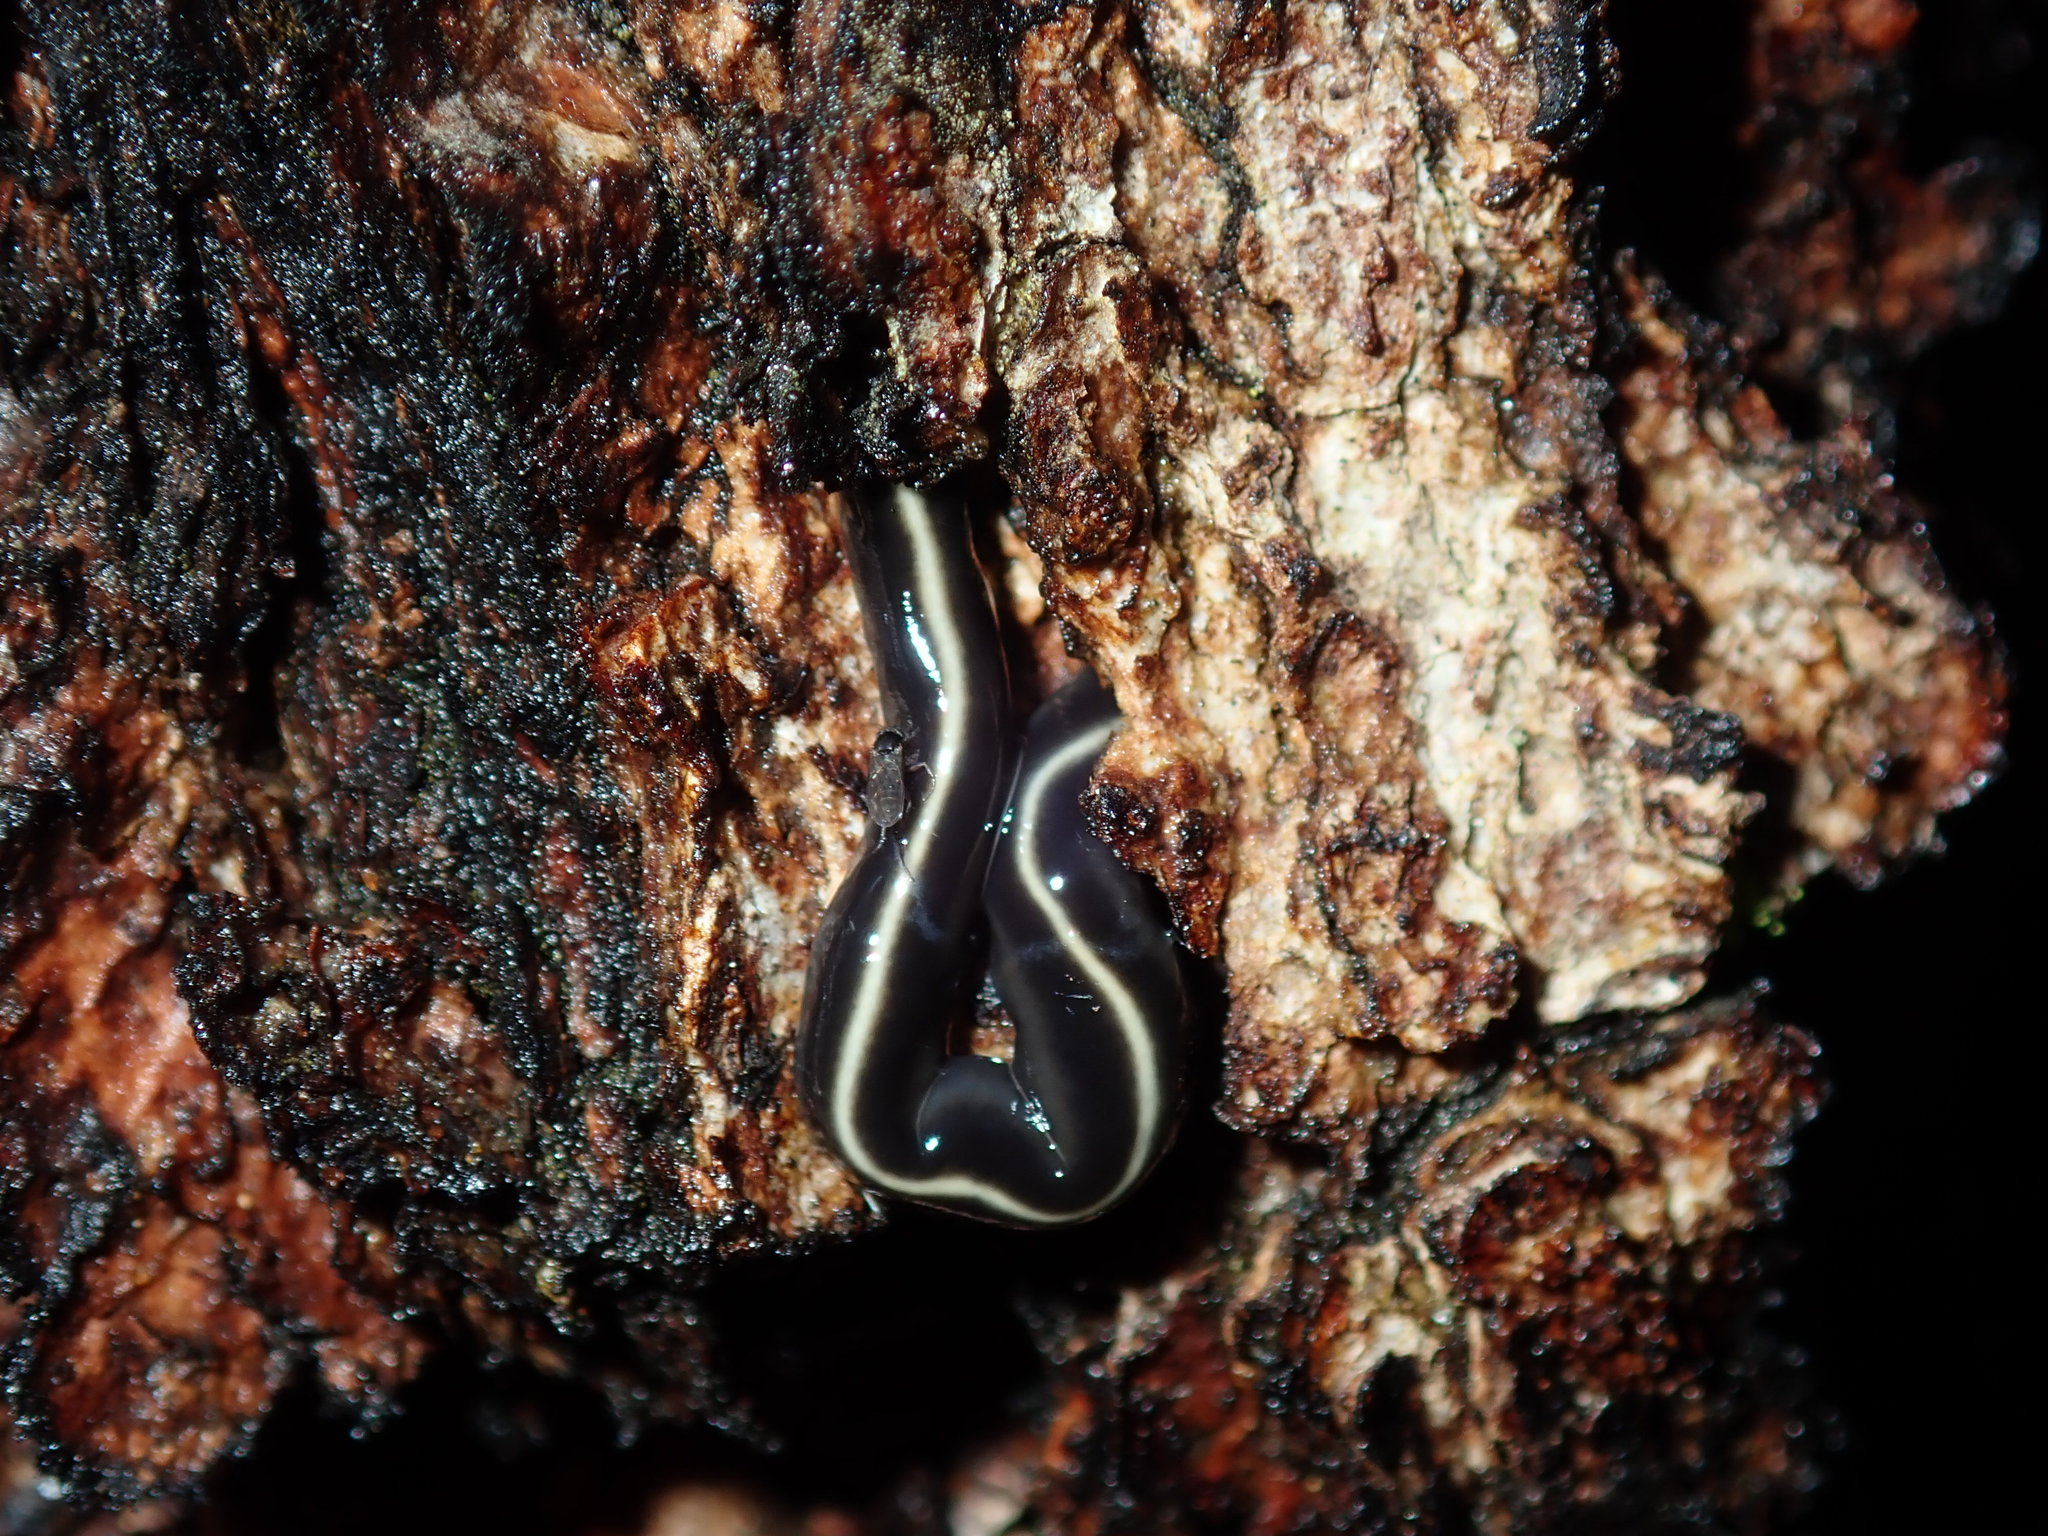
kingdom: Animalia
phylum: Platyhelminthes
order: Tricladida
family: Geoplanidae
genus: Caenoplana
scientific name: Caenoplana coerulea
